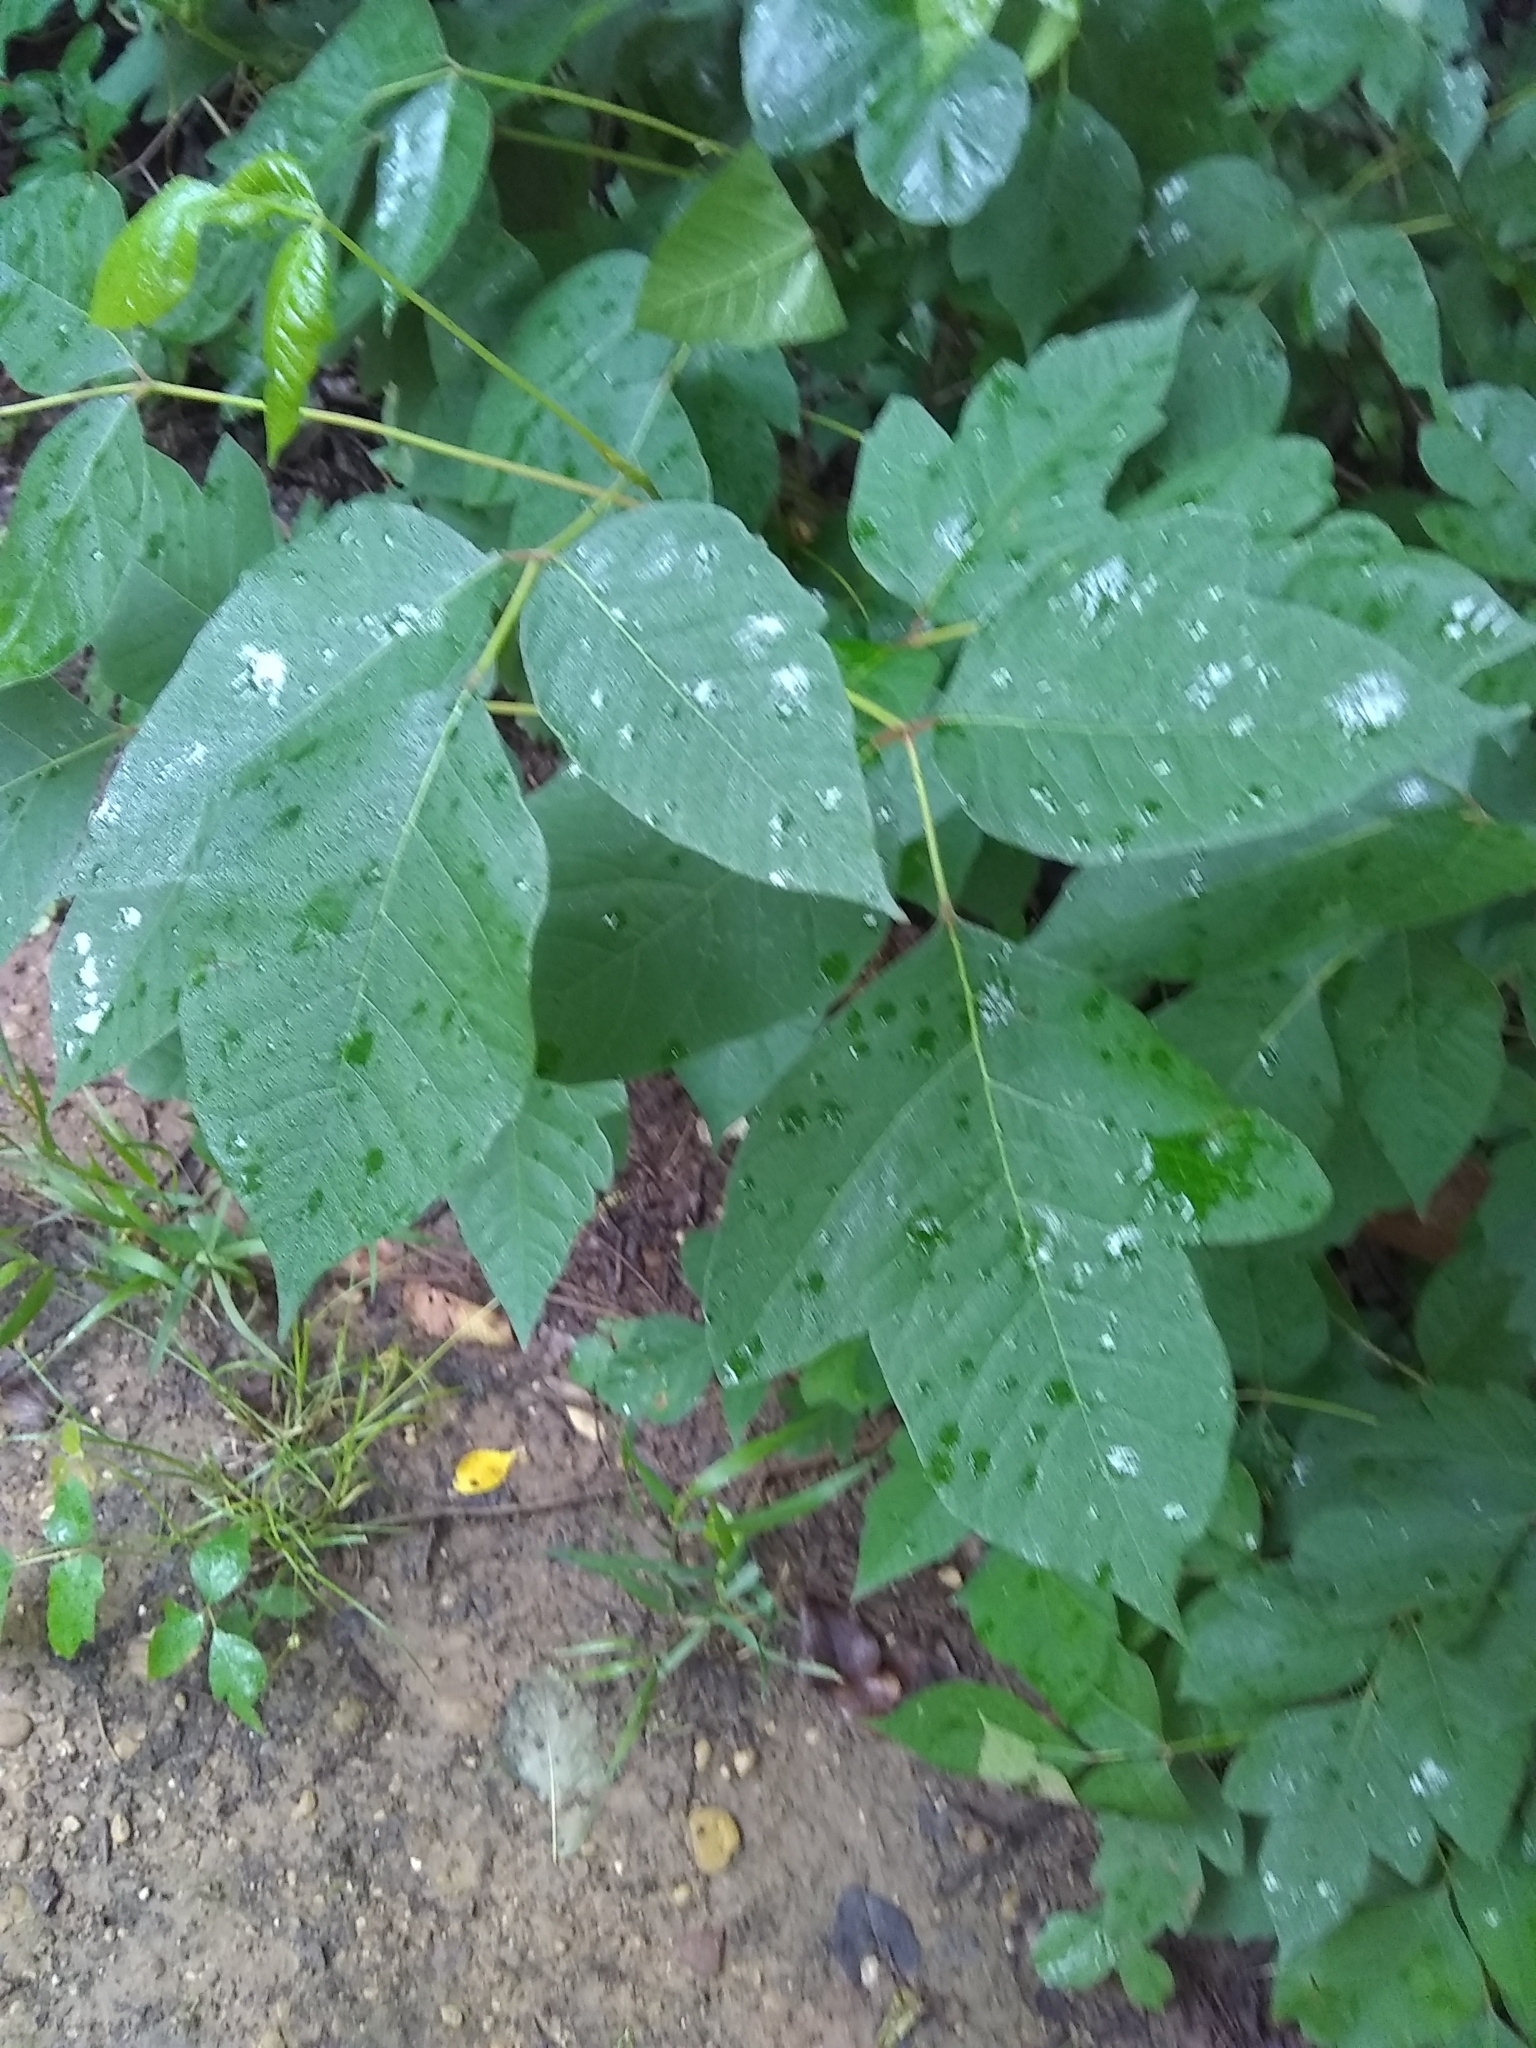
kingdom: Plantae
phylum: Tracheophyta
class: Magnoliopsida
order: Sapindales
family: Anacardiaceae
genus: Toxicodendron
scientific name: Toxicodendron radicans
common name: Poison ivy
